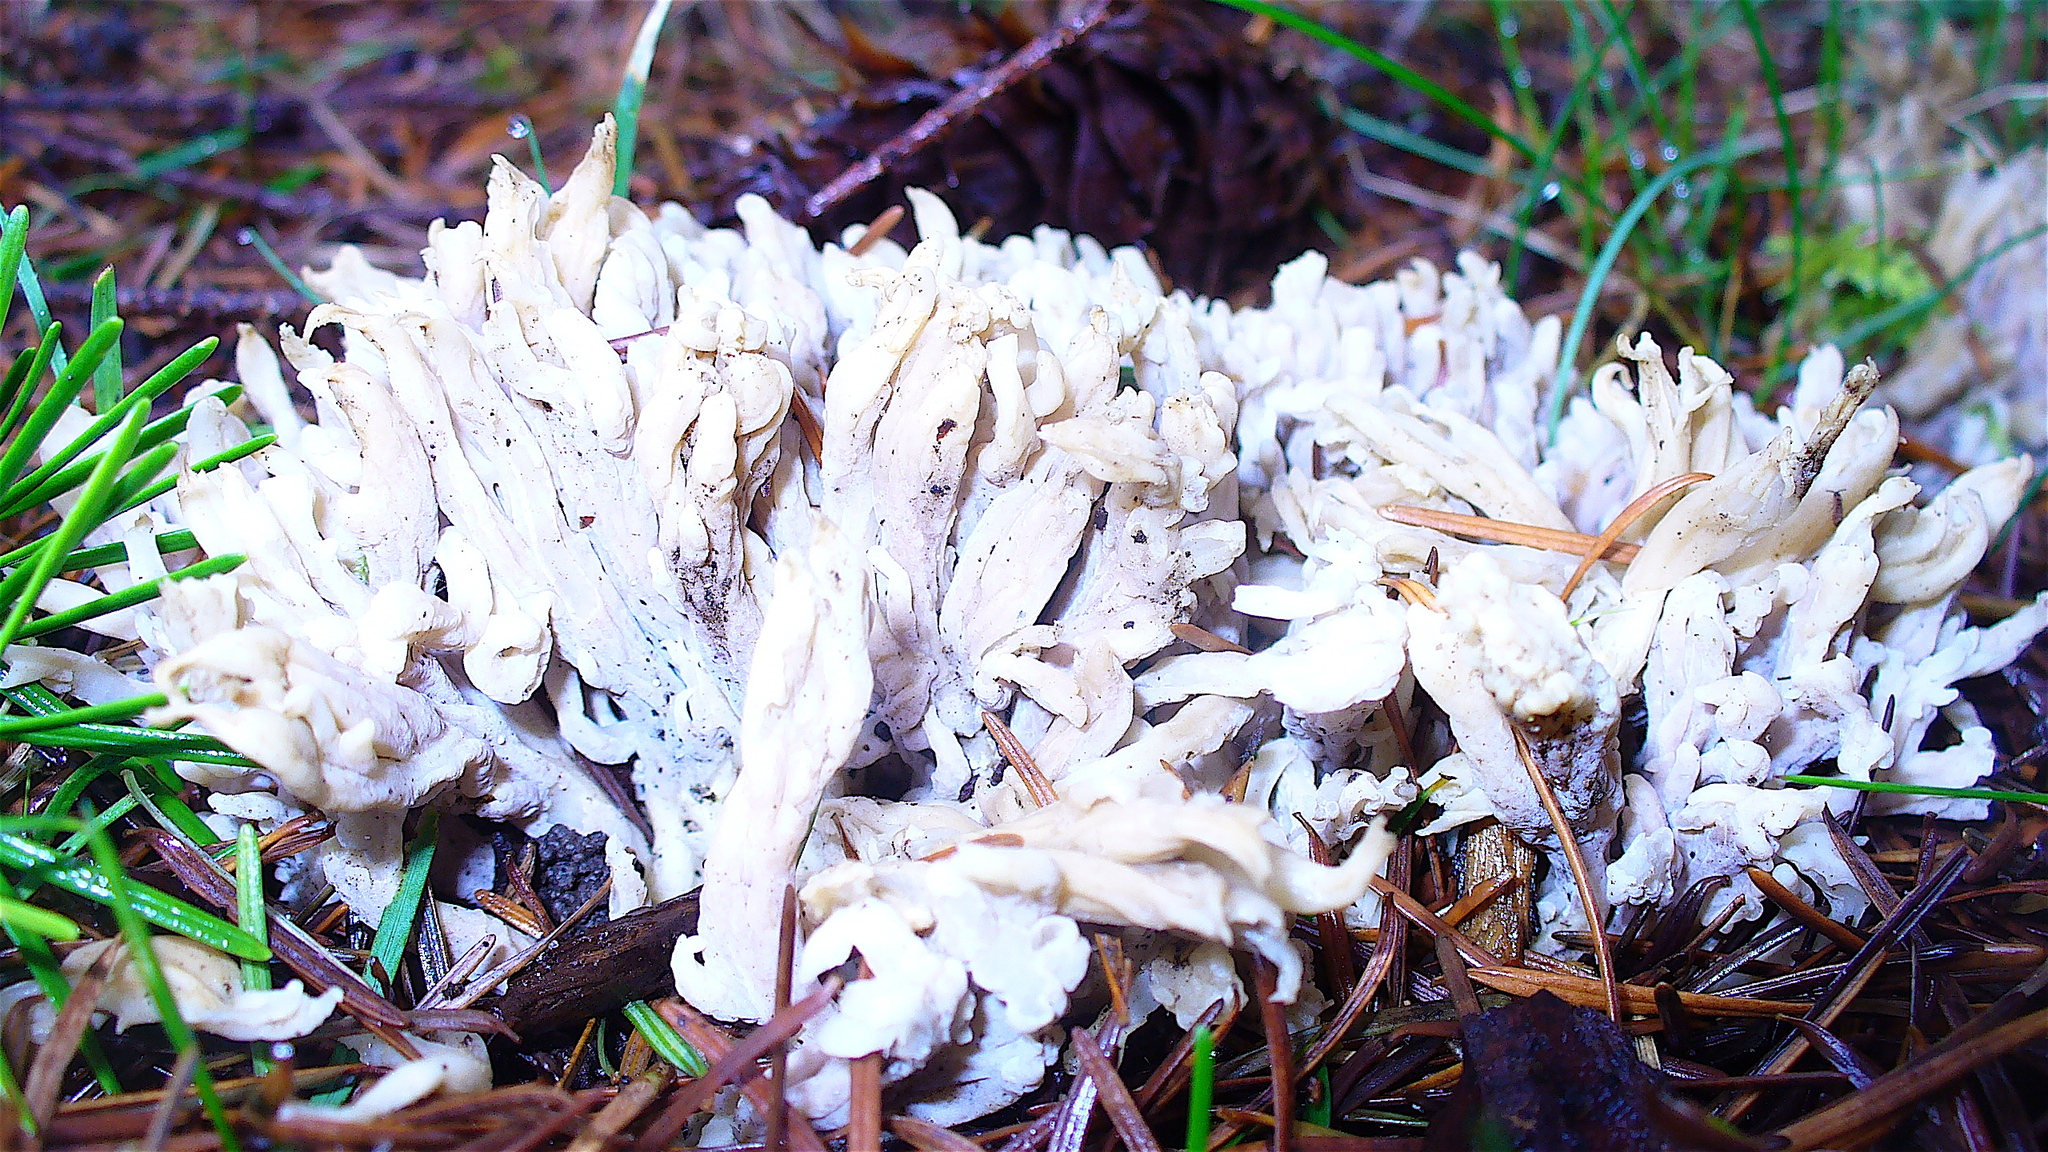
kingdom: Fungi
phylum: Basidiomycota
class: Agaricomycetes
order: Cantharellales
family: Hydnaceae
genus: Clavulina
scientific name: Clavulina coralloides
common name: Crested coral
